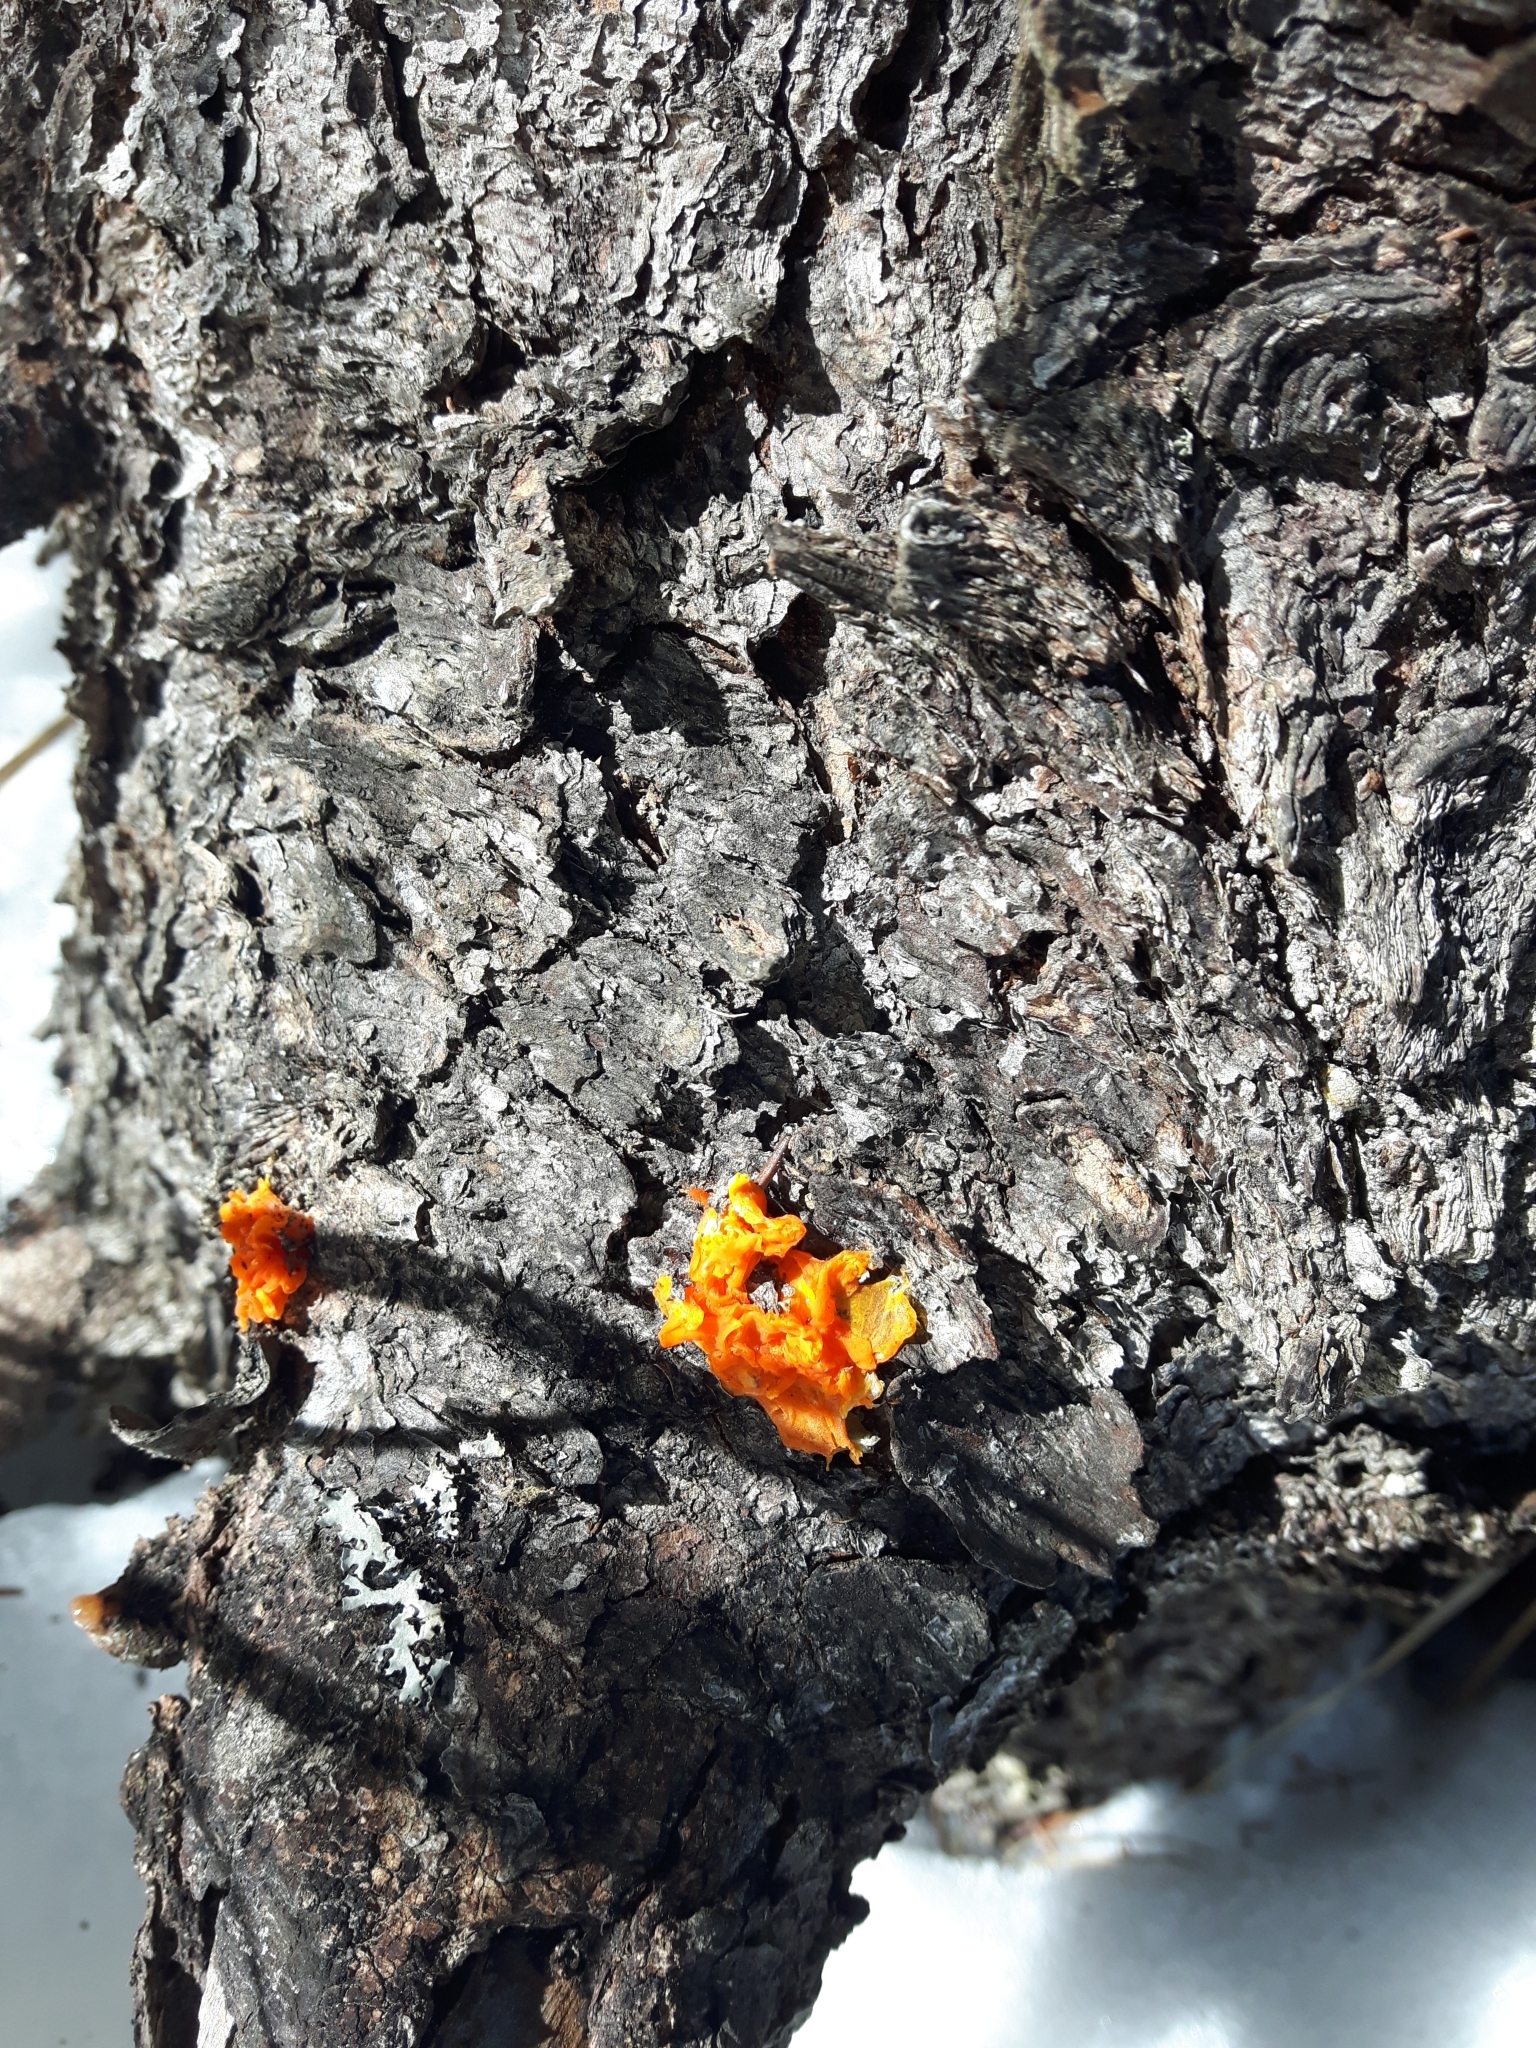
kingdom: Fungi
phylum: Basidiomycota
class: Dacrymycetes
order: Dacrymycetales
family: Dacrymycetaceae
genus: Dacrymyces
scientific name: Dacrymyces chrysospermus
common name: Orange jelly spot
